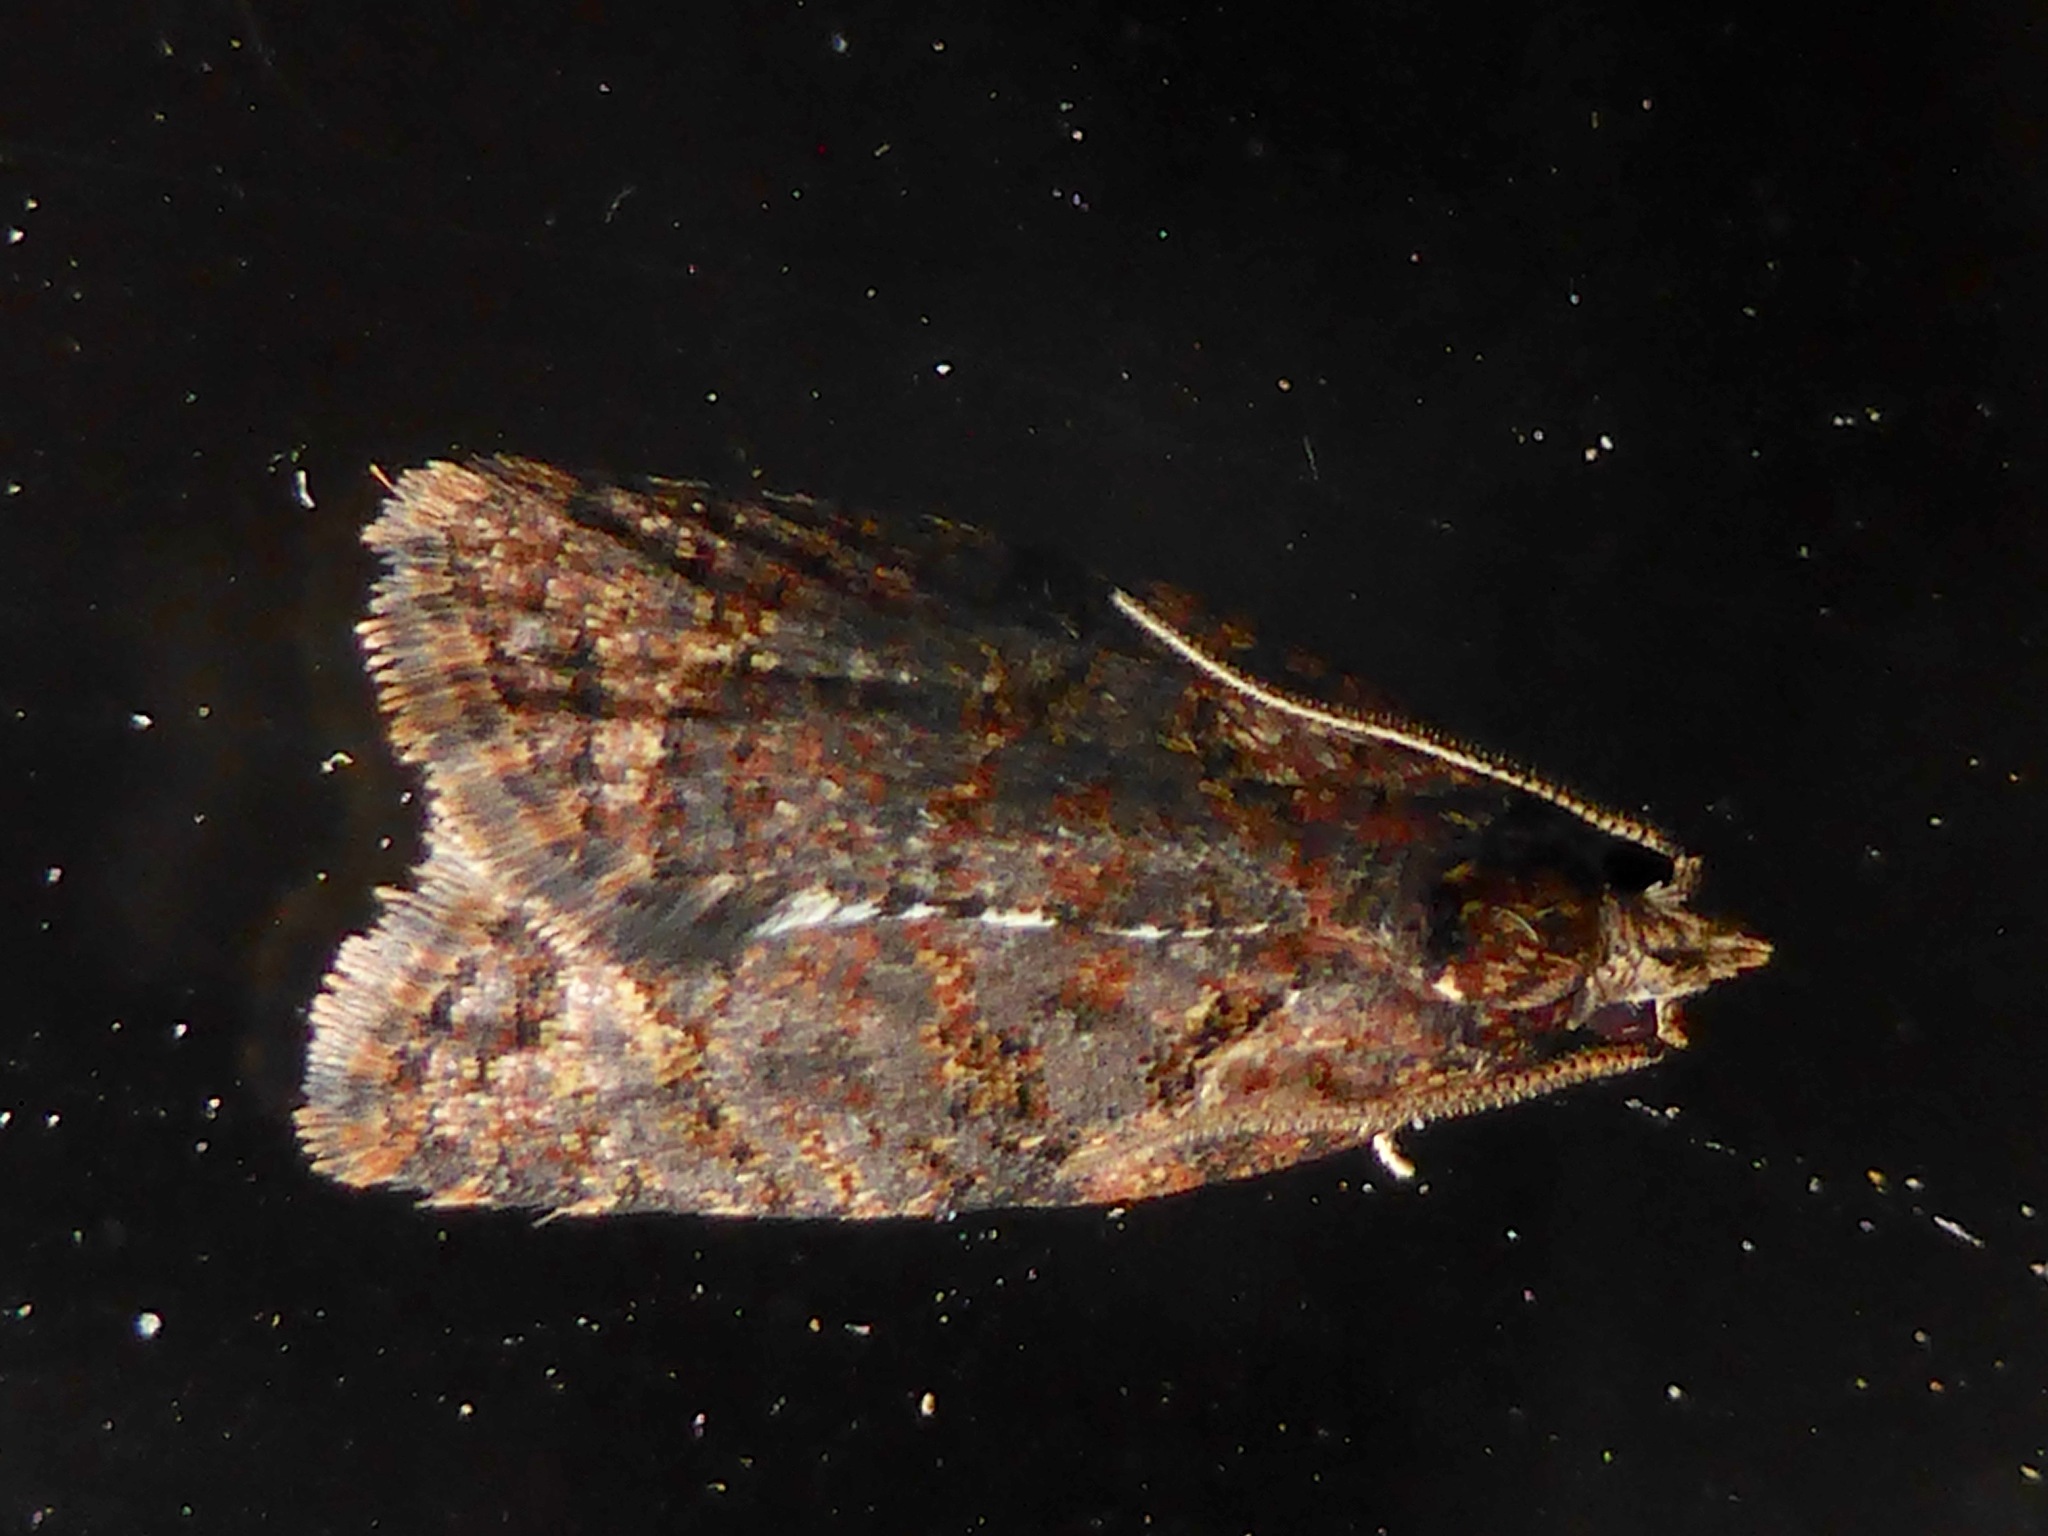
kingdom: Animalia
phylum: Arthropoda
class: Insecta
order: Lepidoptera
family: Tortricidae
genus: Capua
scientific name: Capua intractana
